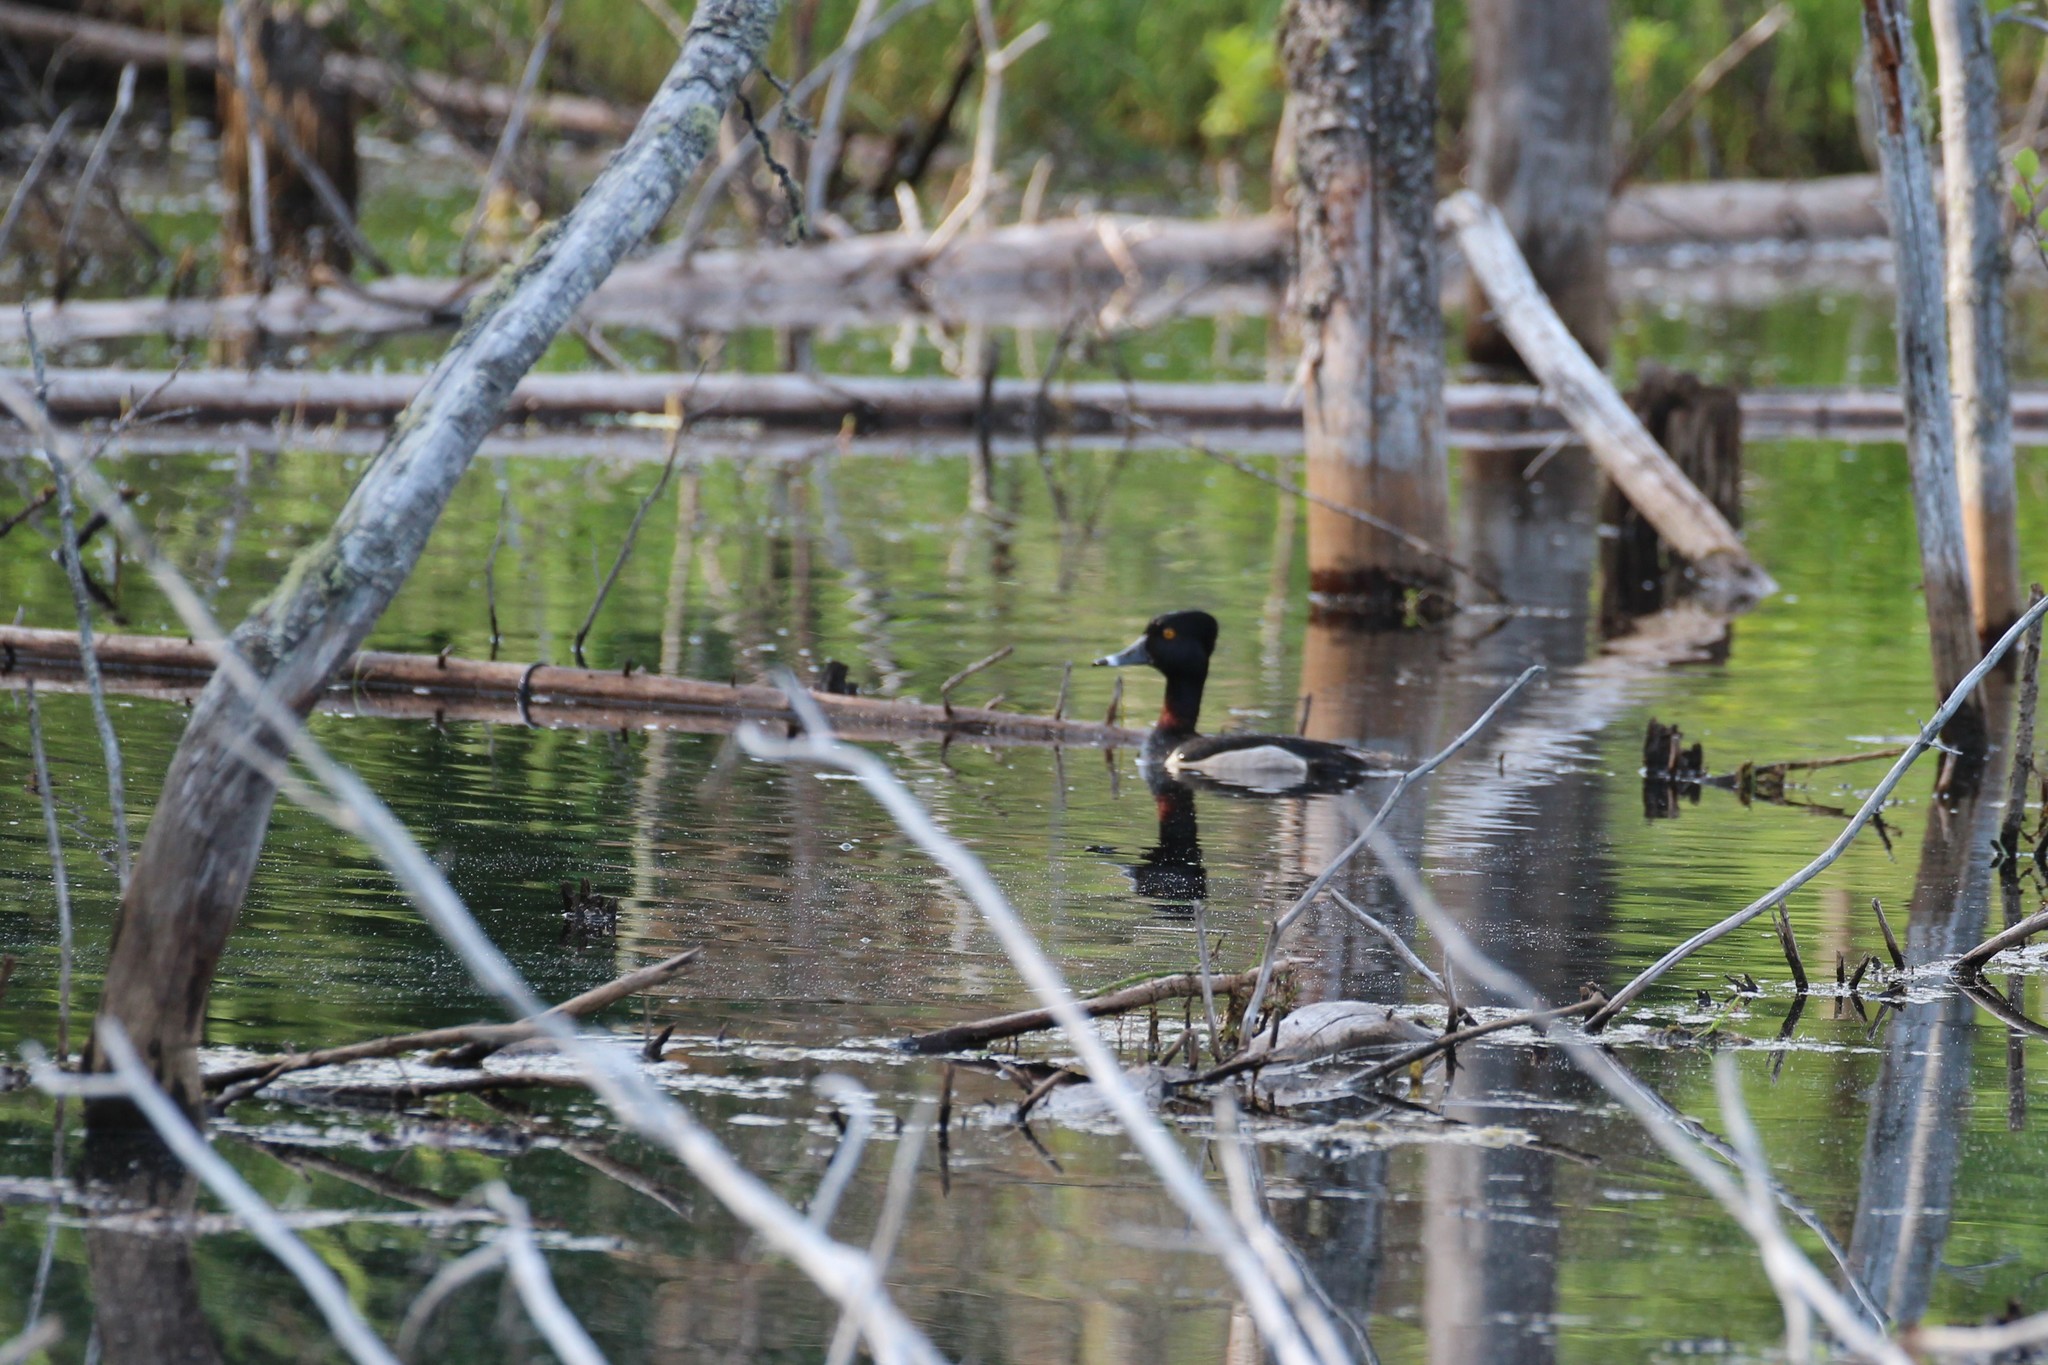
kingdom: Animalia
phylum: Chordata
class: Aves
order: Anseriformes
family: Anatidae
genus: Aythya
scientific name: Aythya collaris
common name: Ring-necked duck
